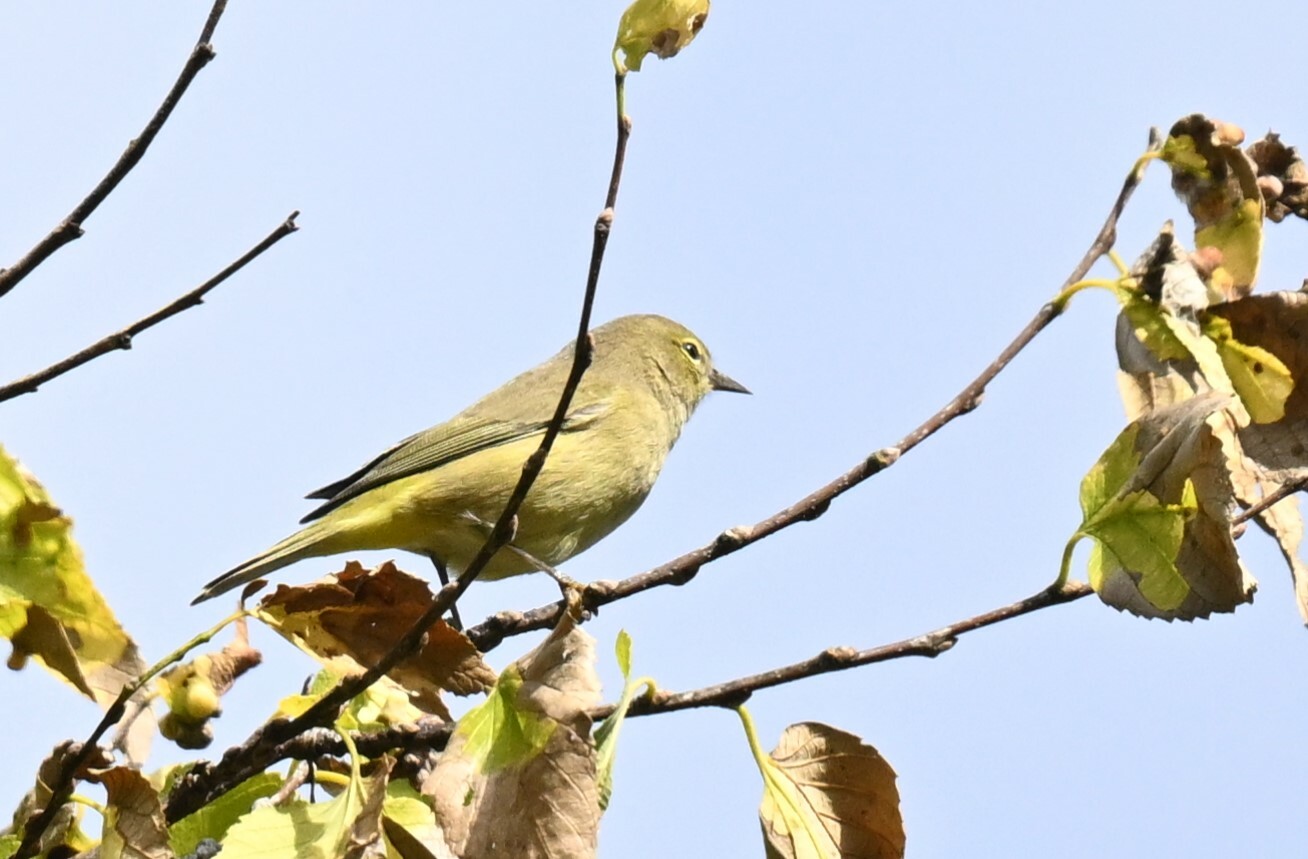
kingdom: Animalia
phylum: Chordata
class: Aves
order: Passeriformes
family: Parulidae
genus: Leiothlypis
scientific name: Leiothlypis celata
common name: Orange-crowned warbler
